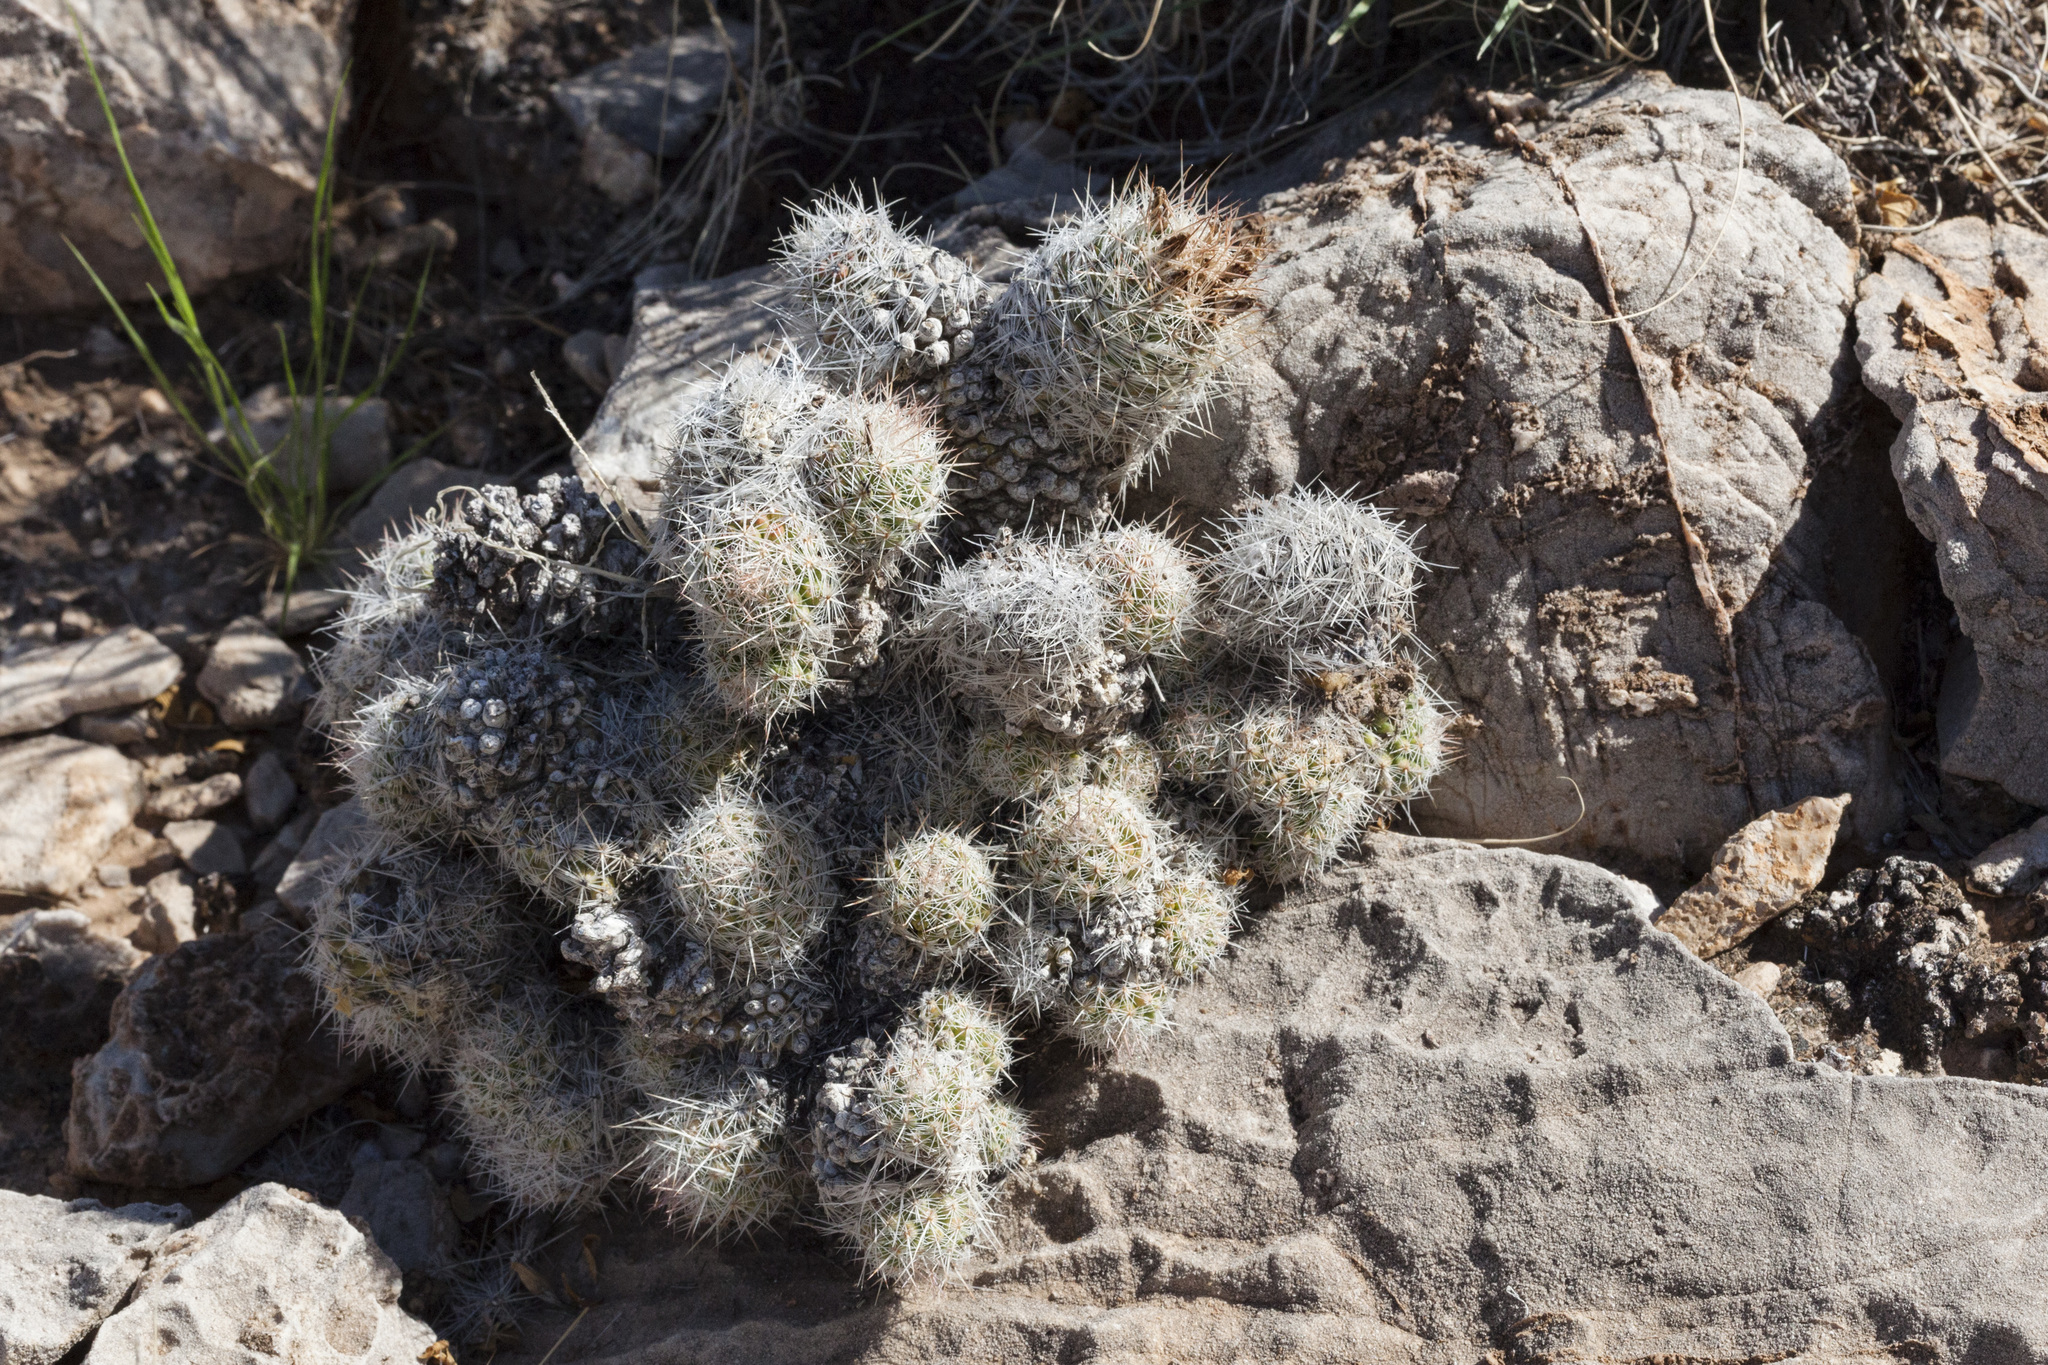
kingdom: Plantae
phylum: Tracheophyta
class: Magnoliopsida
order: Caryophyllales
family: Cactaceae
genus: Pelecyphora
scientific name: Pelecyphora tuberculosa
